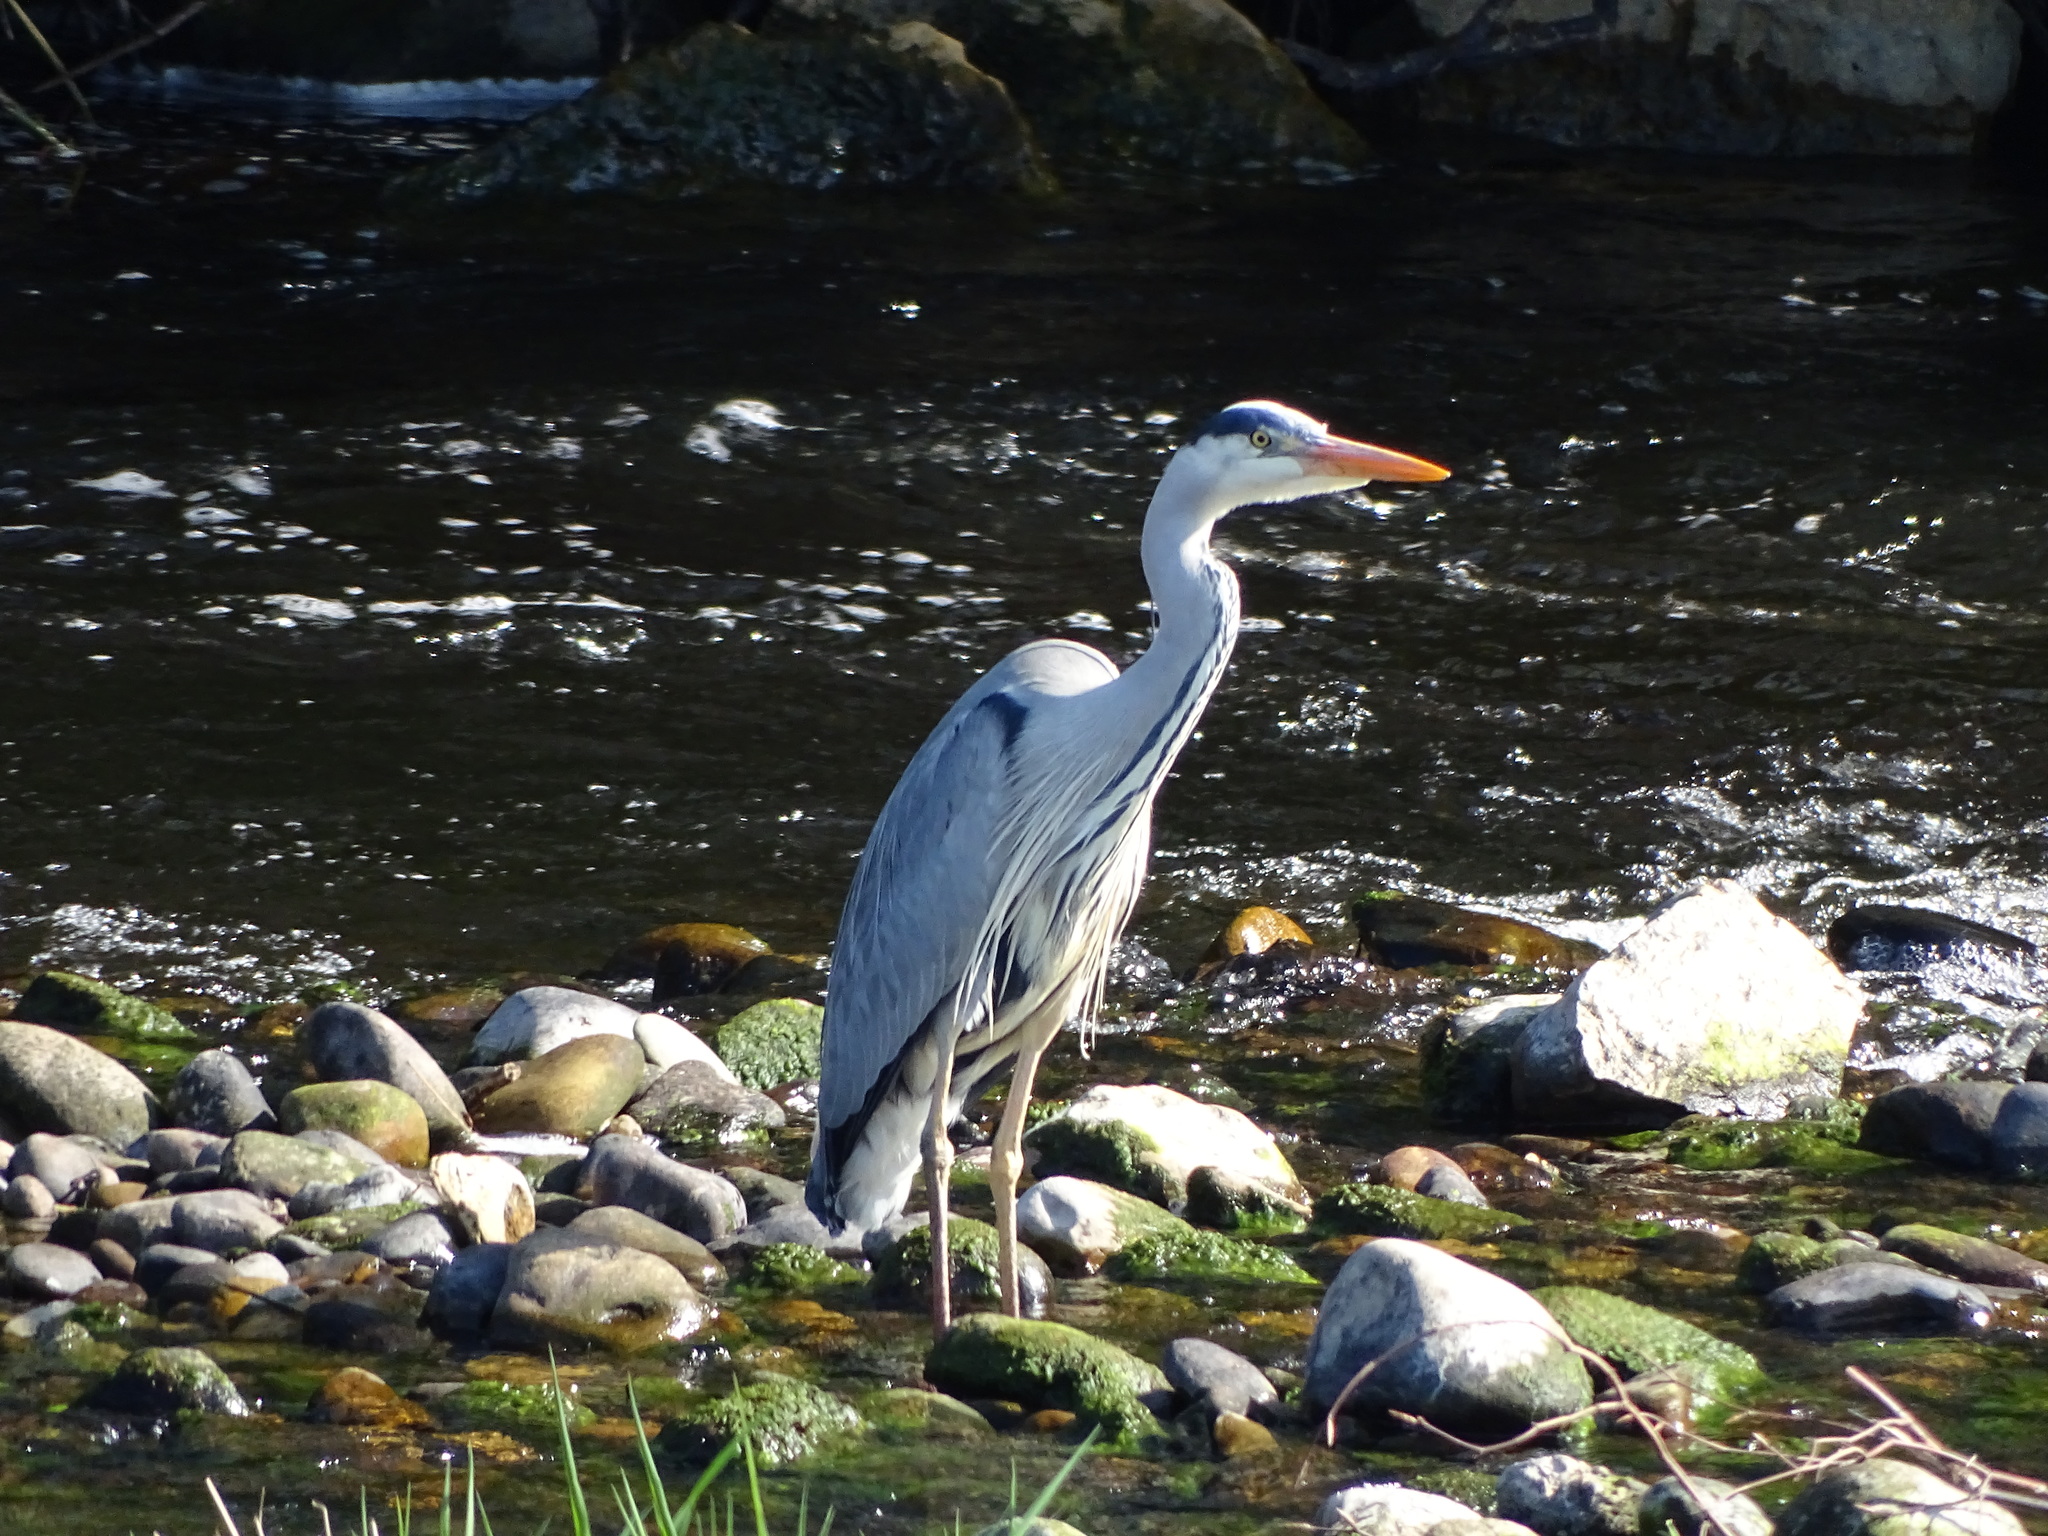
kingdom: Animalia
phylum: Chordata
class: Aves
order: Pelecaniformes
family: Ardeidae
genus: Ardea
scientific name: Ardea cinerea
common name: Grey heron
